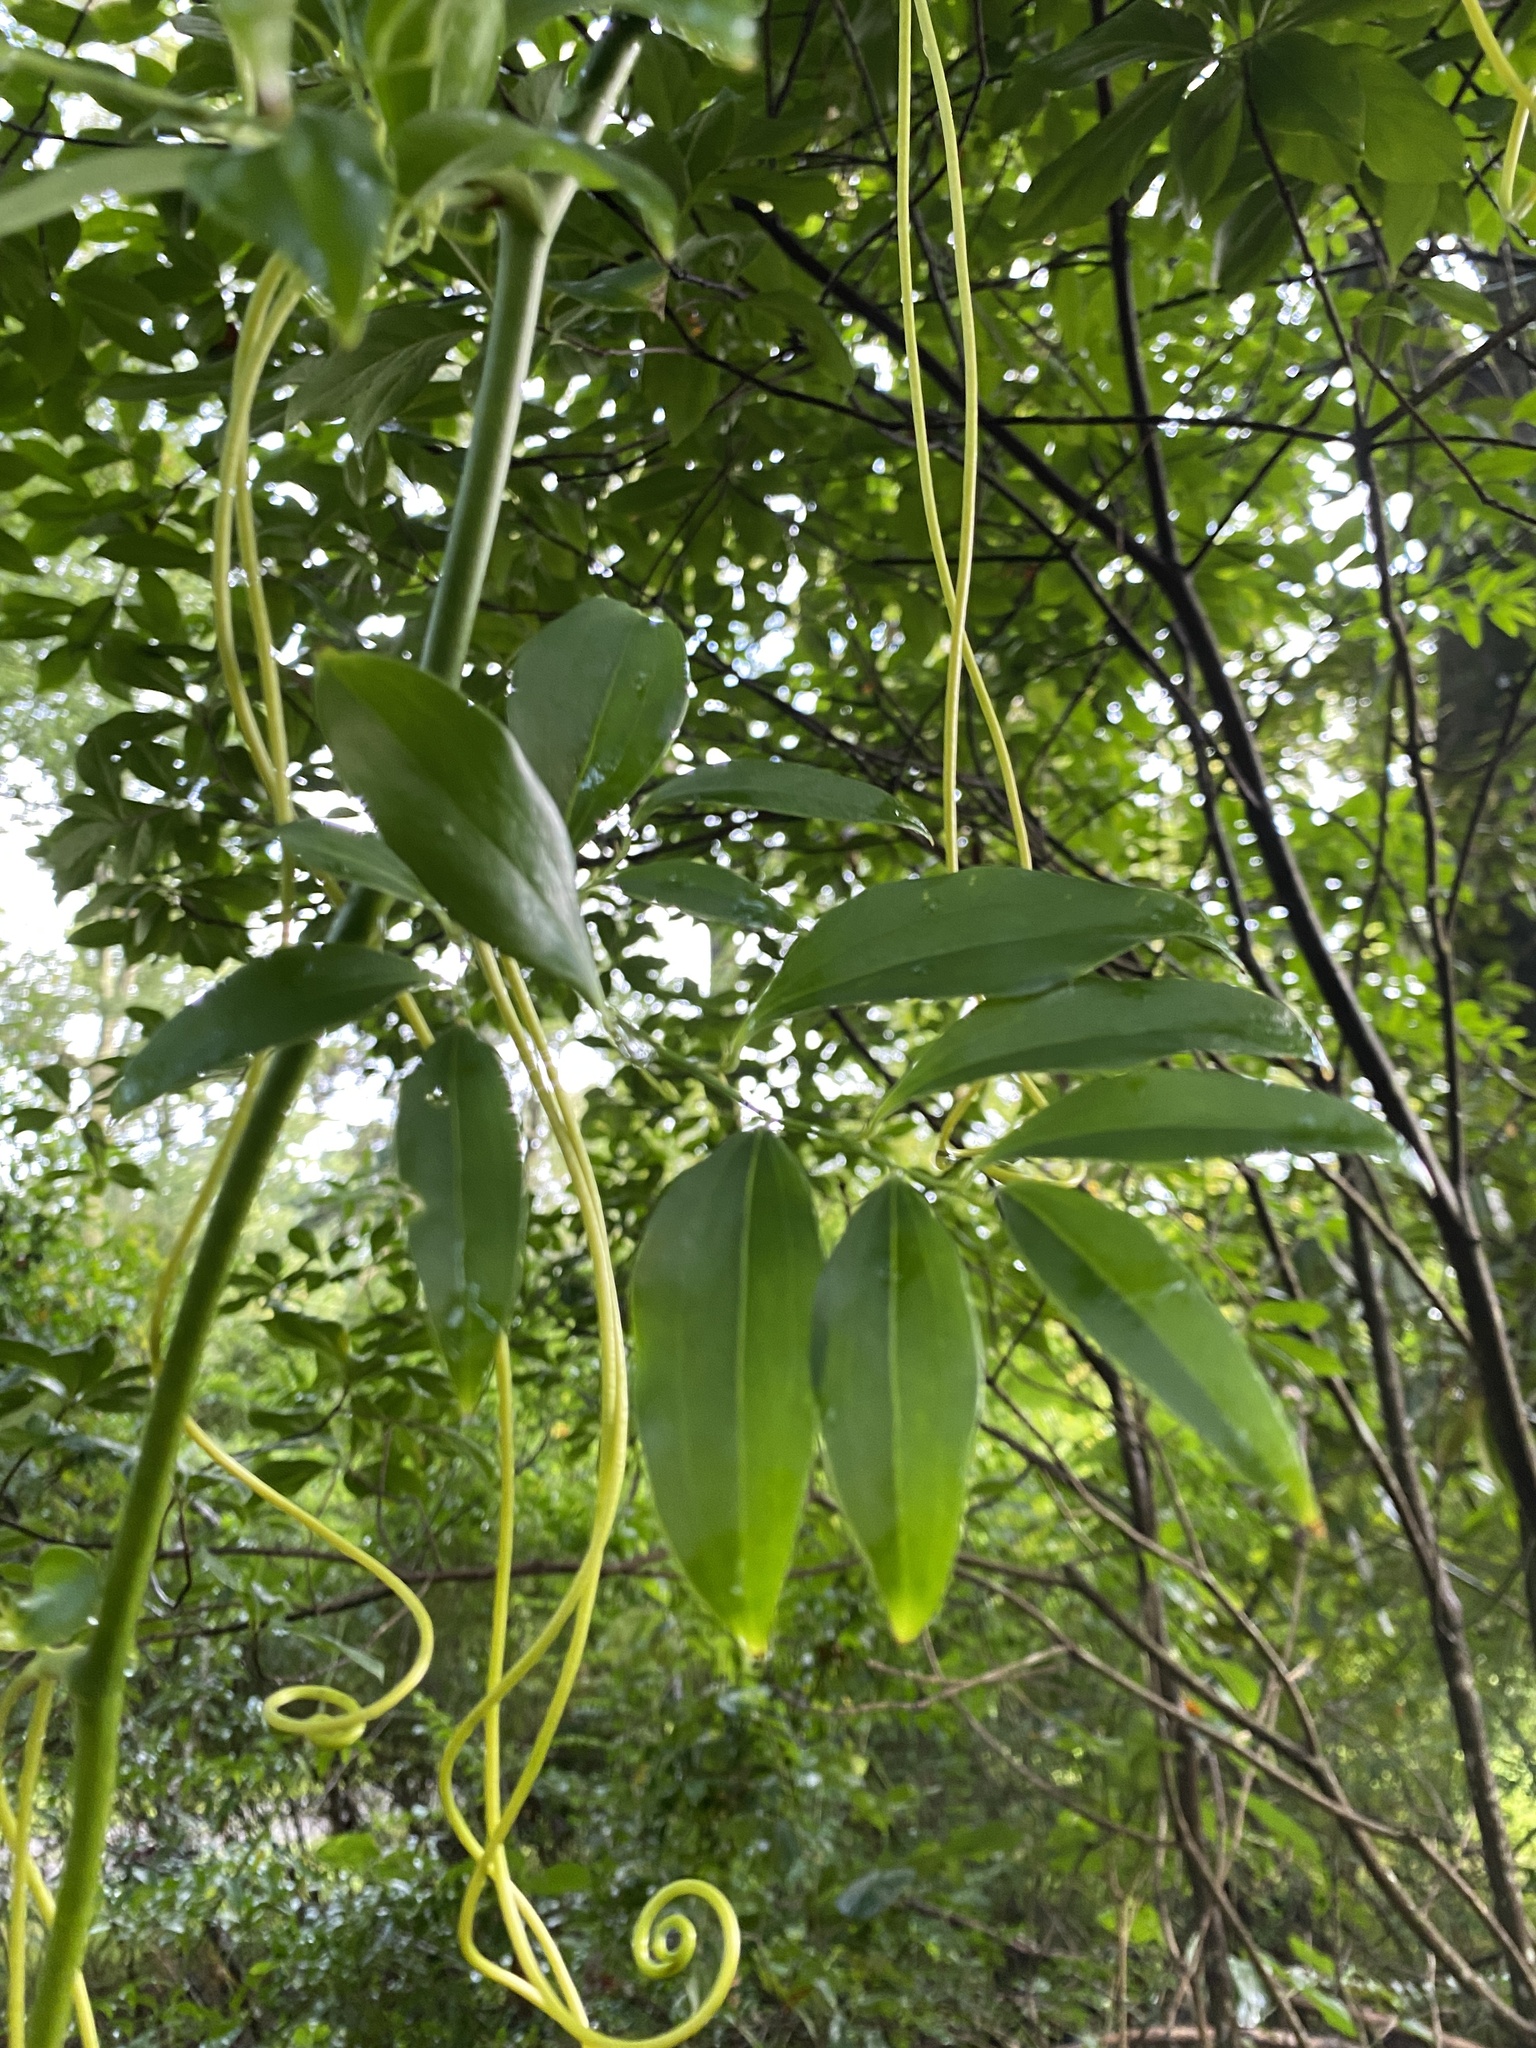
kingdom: Plantae
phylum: Tracheophyta
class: Liliopsida
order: Liliales
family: Smilacaceae
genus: Smilax
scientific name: Smilax maritima
